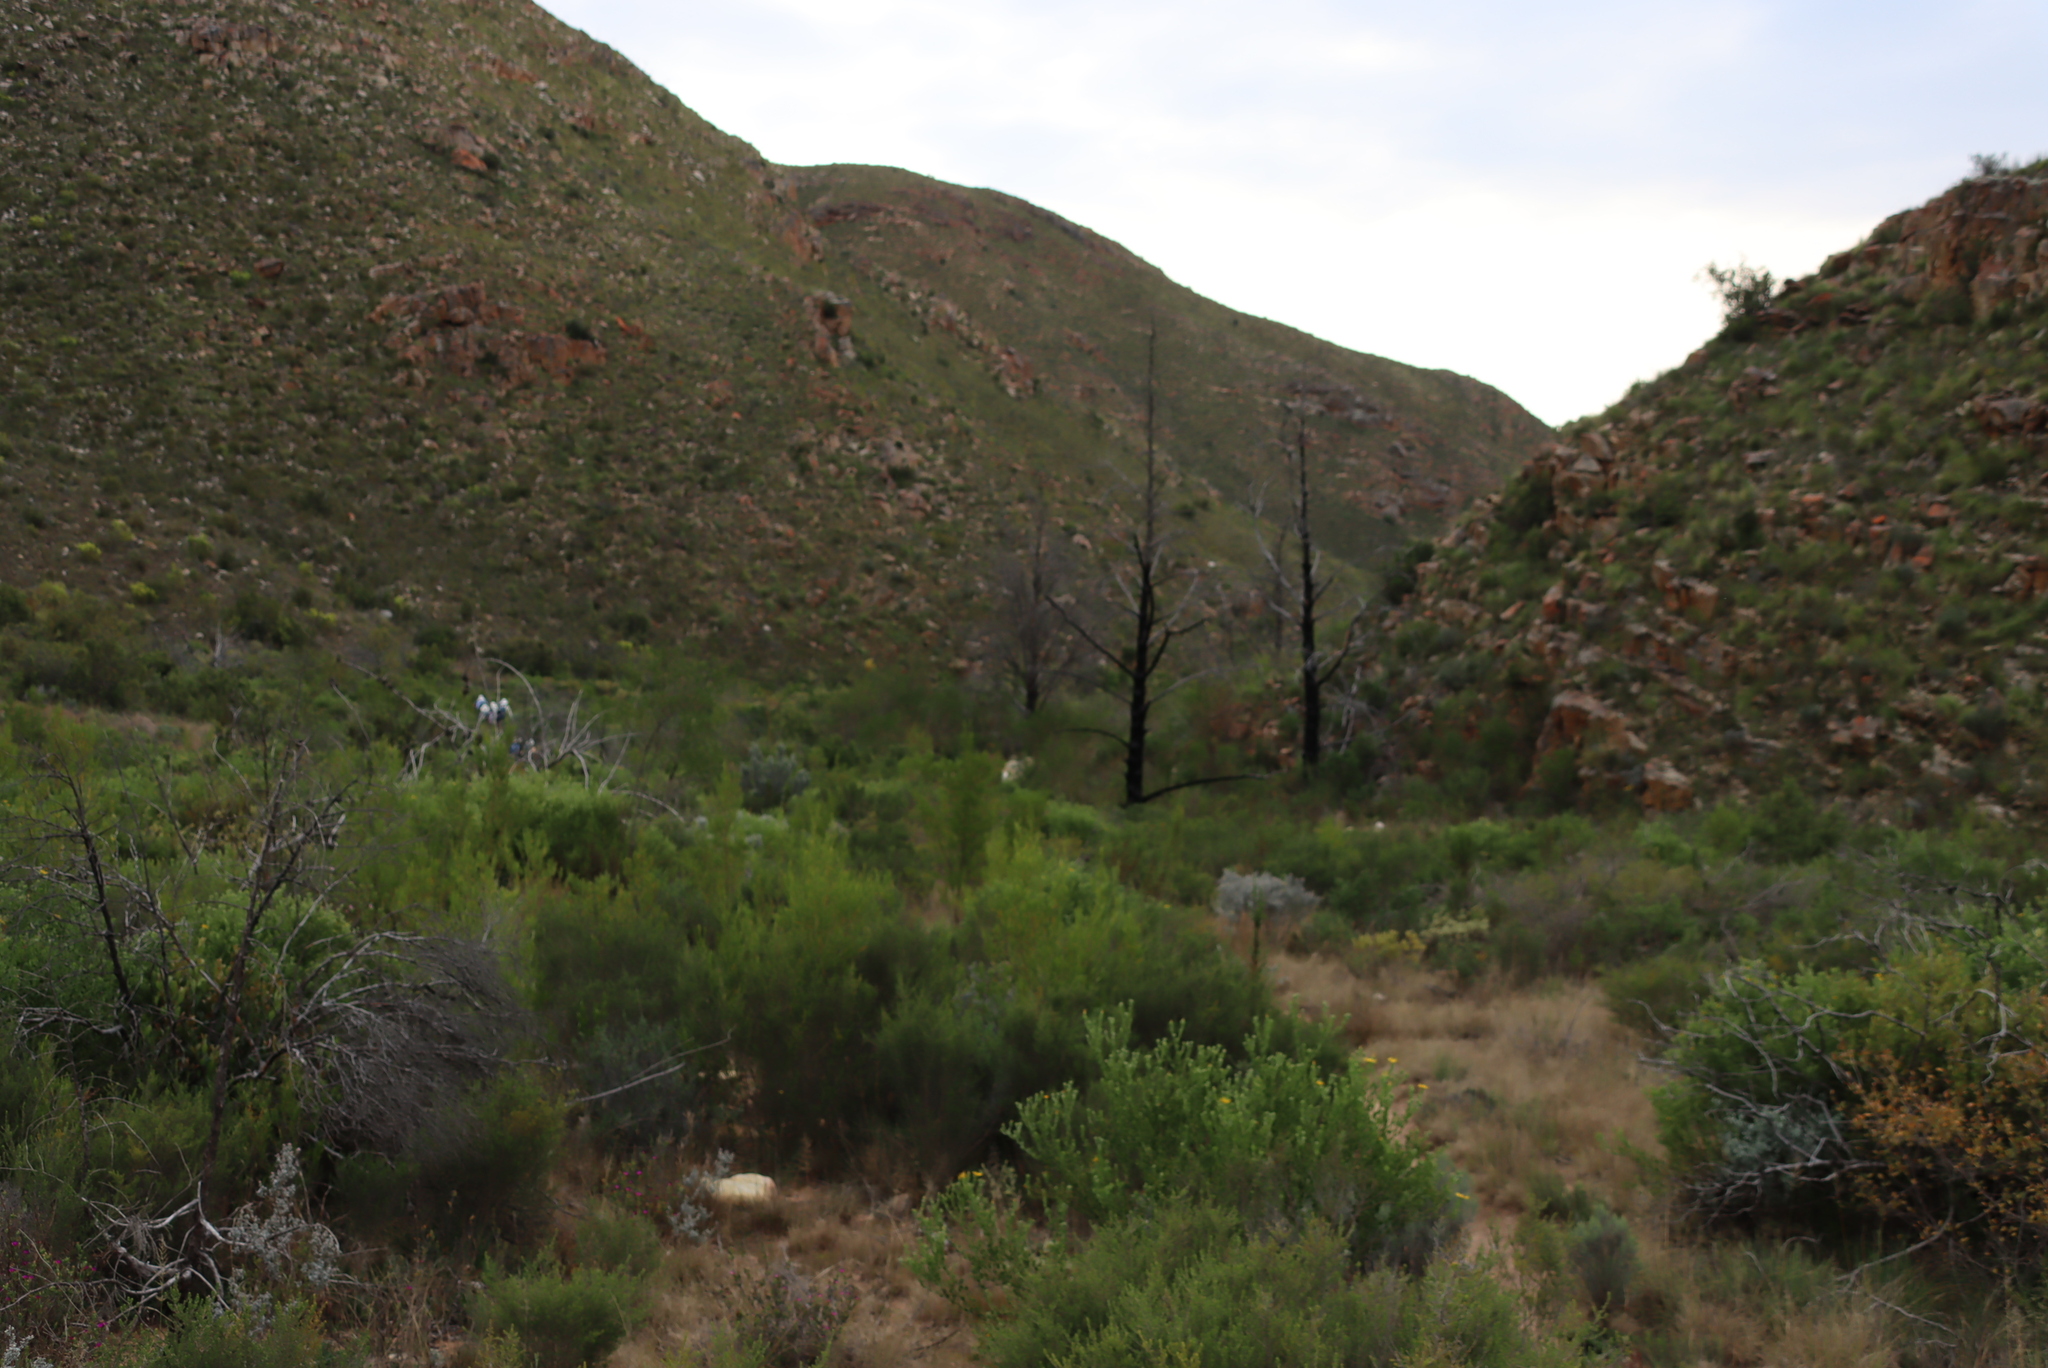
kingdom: Plantae
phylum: Tracheophyta
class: Pinopsida
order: Pinales
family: Cupressaceae
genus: Widdringtonia
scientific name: Widdringtonia schwarzii
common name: Baviaans cedar
